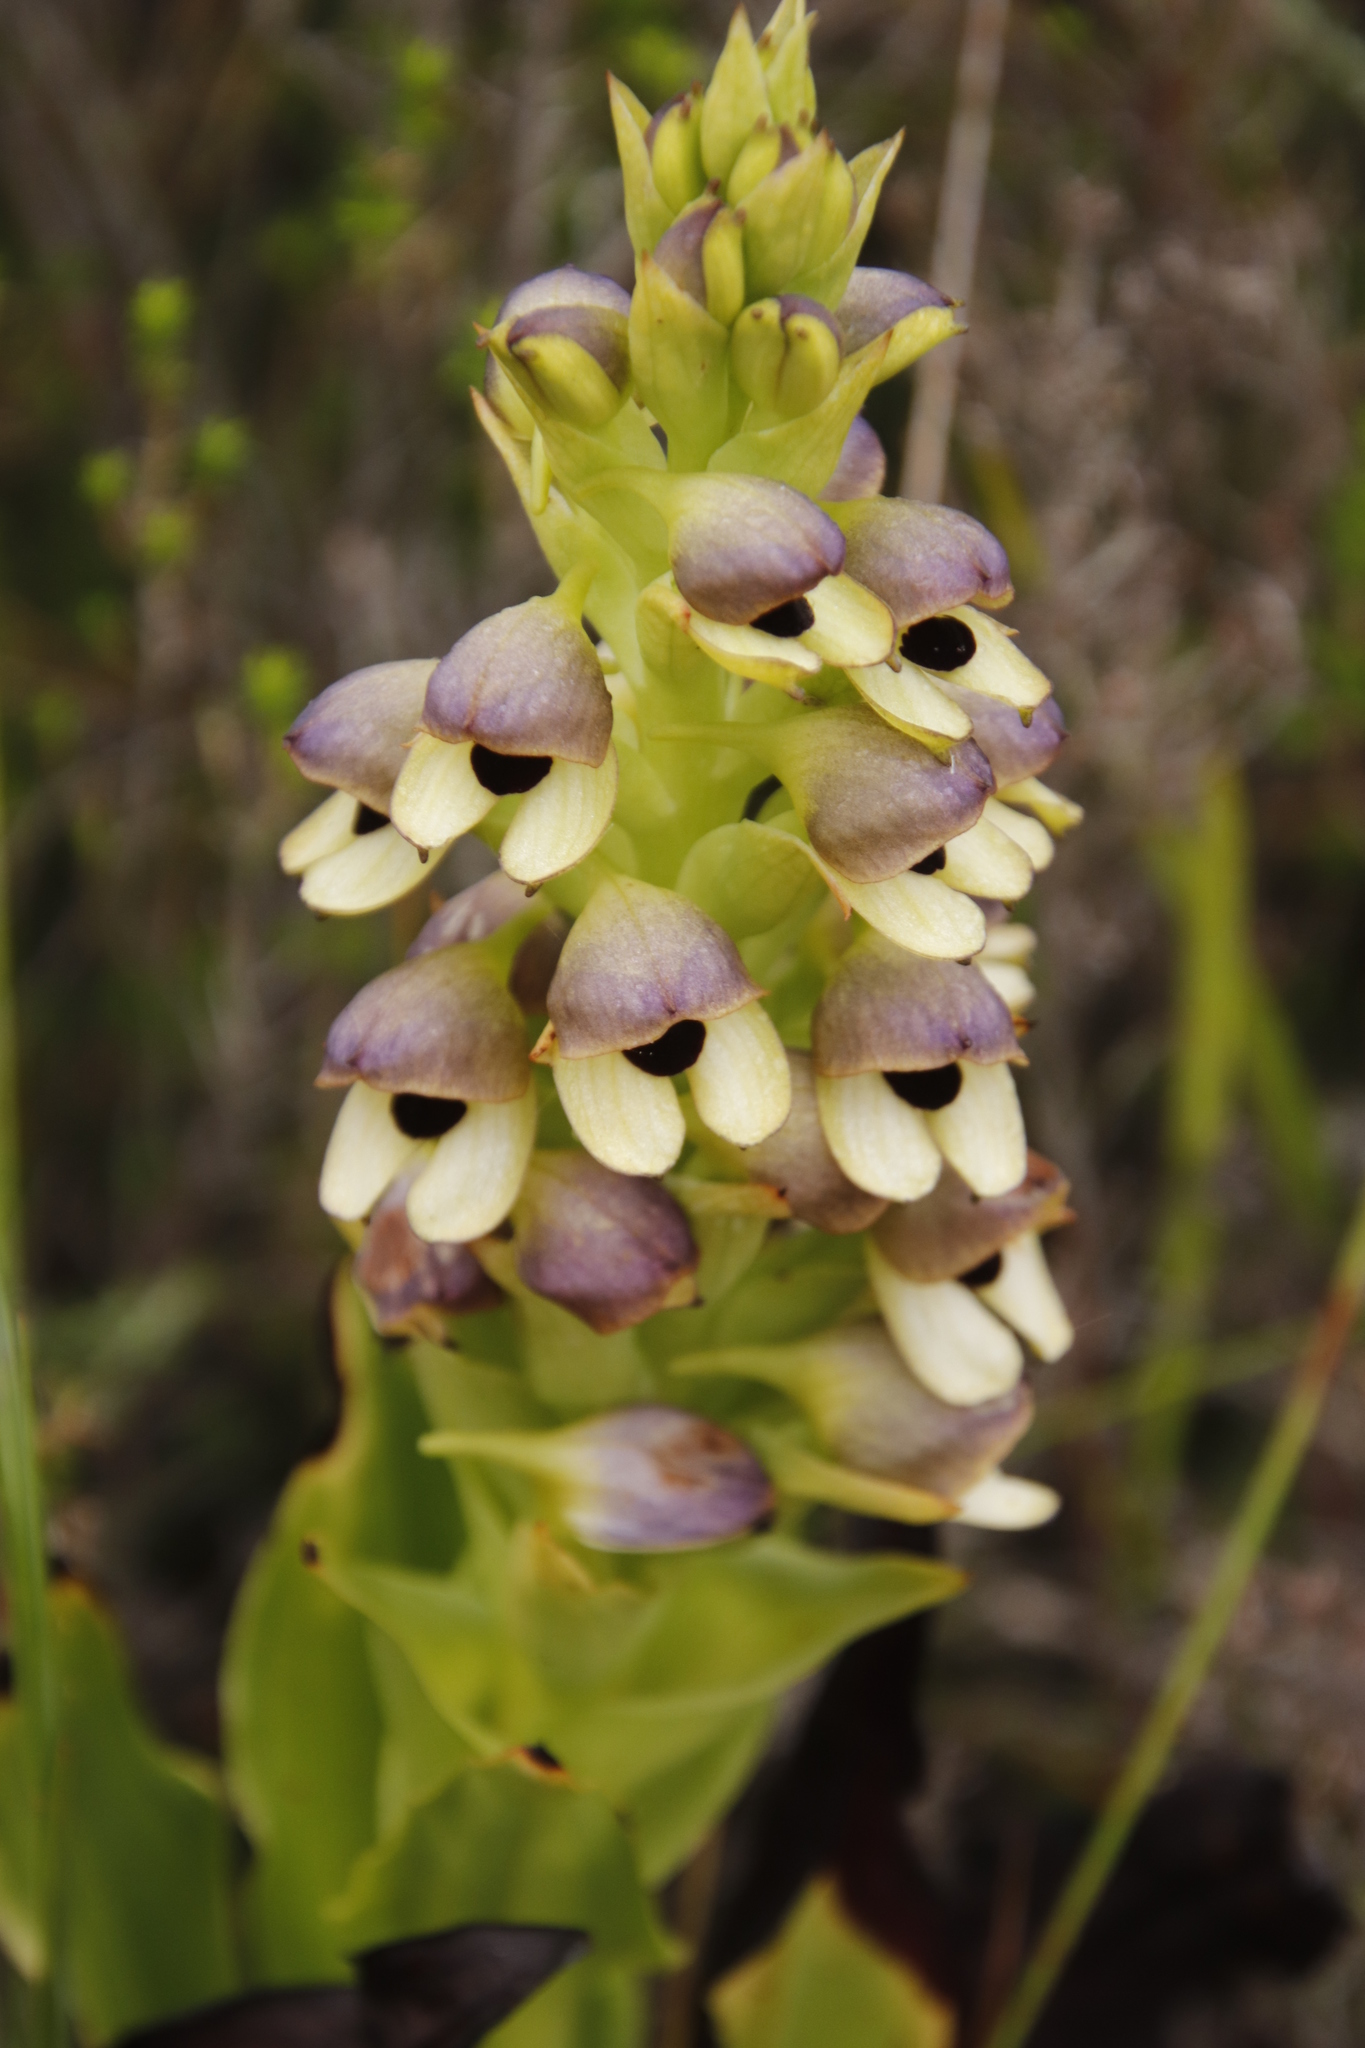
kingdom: Plantae
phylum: Tracheophyta
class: Liliopsida
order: Asparagales
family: Orchidaceae
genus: Disa
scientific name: Disa cornuta
